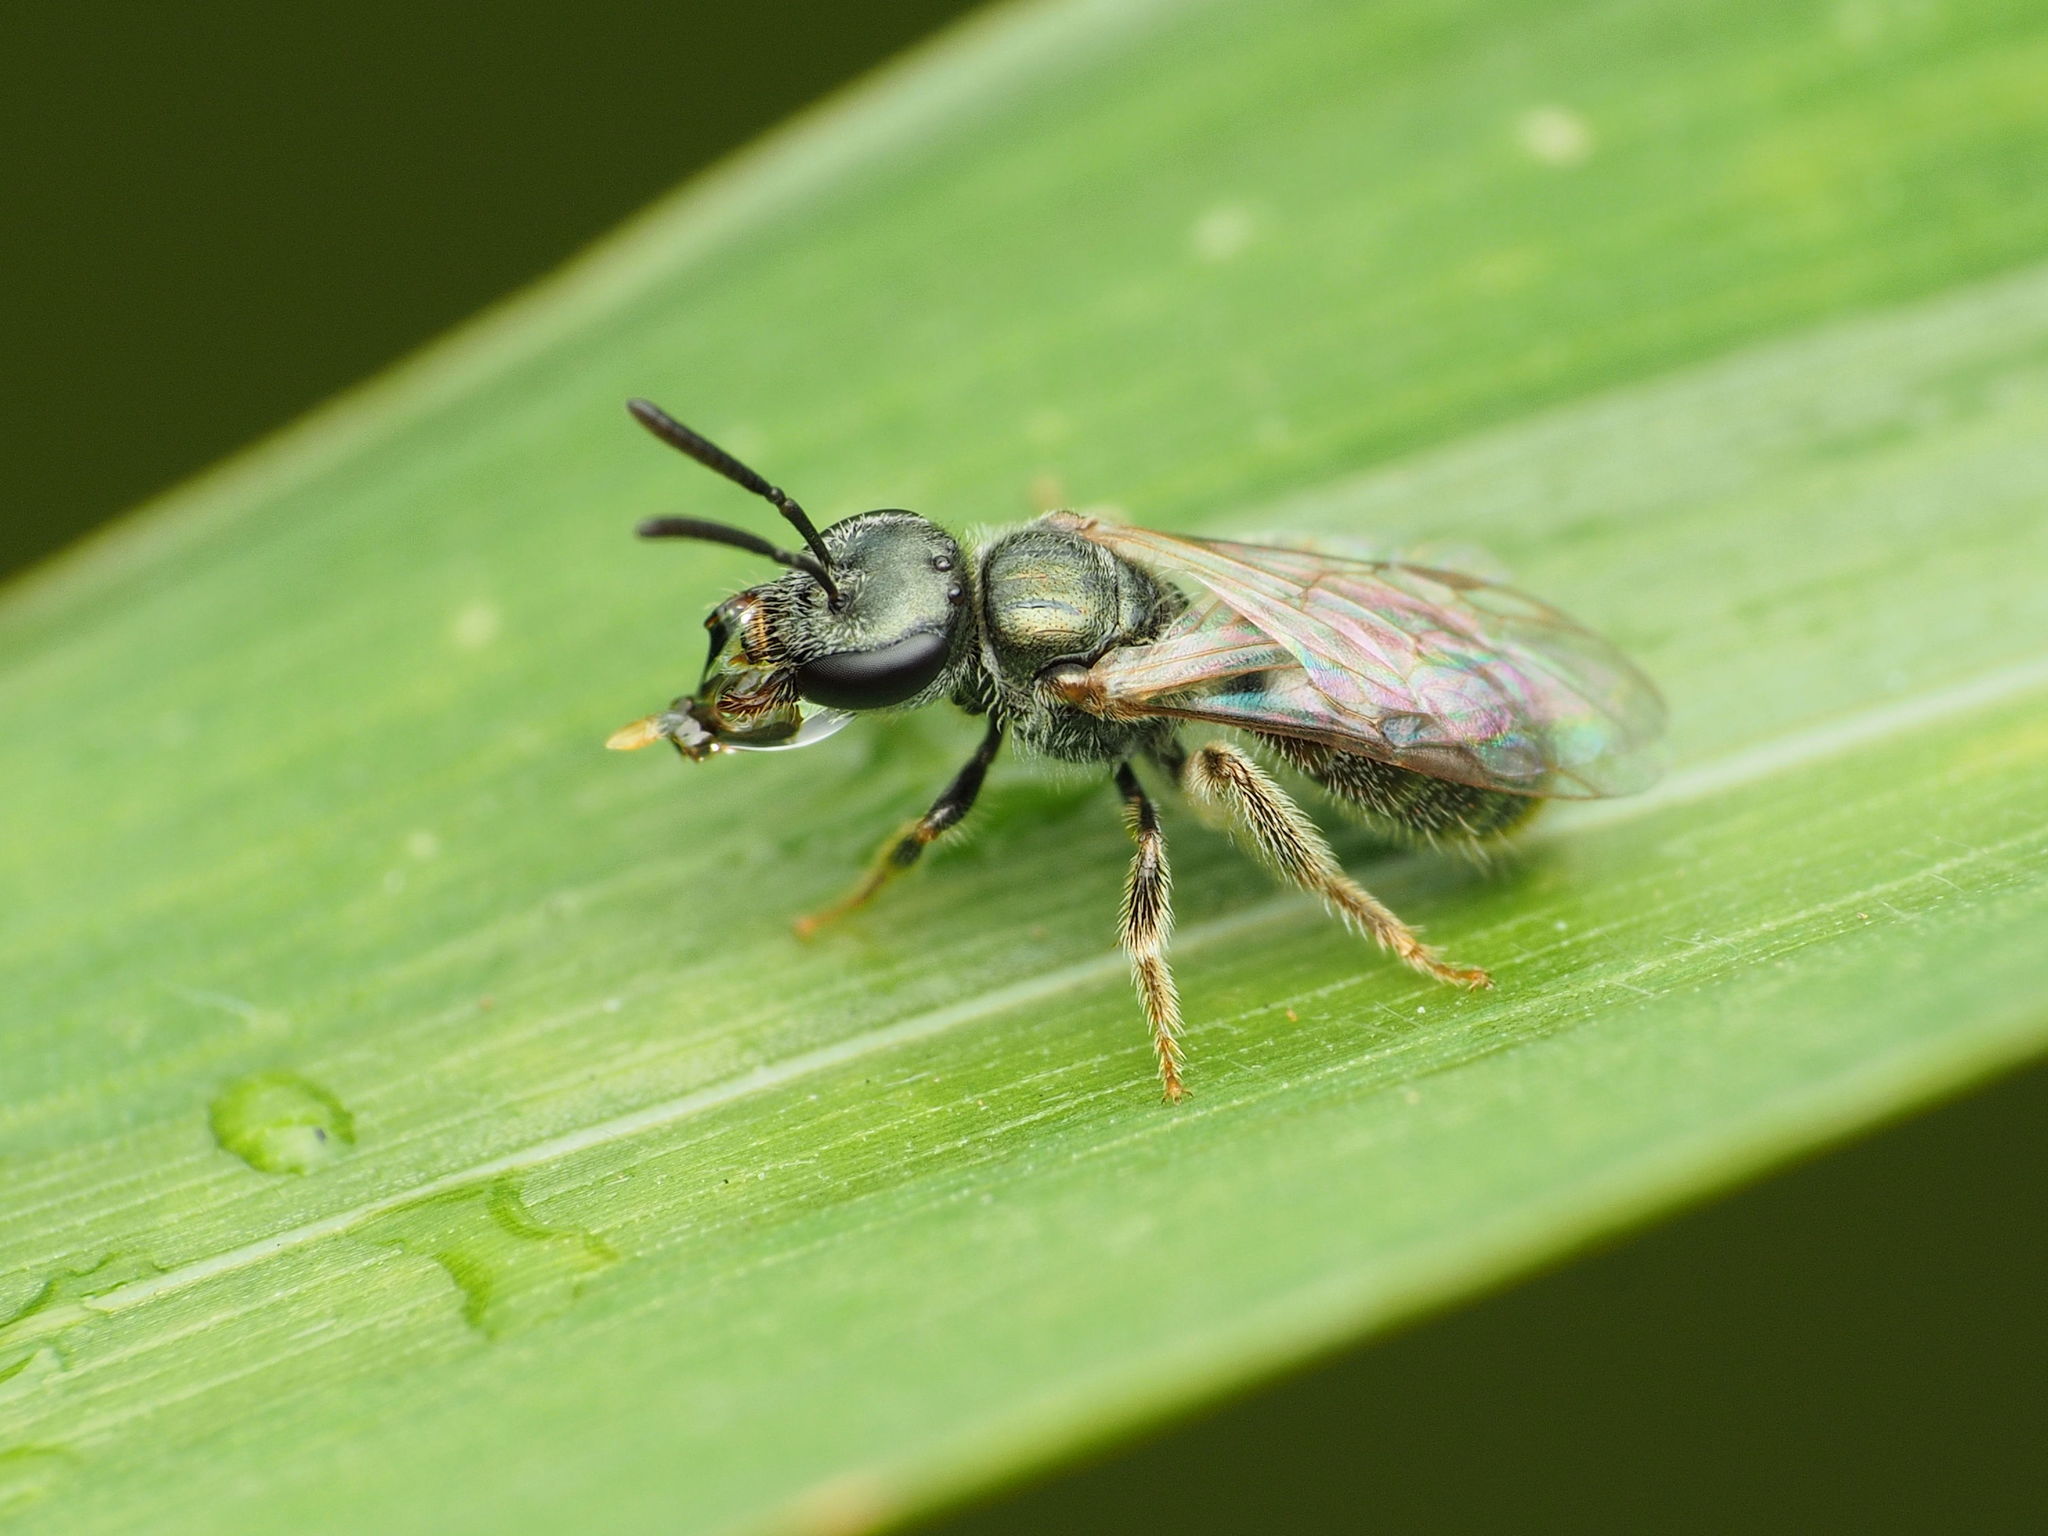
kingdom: Animalia
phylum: Arthropoda
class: Insecta
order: Hymenoptera
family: Halictidae
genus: Dialictus
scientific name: Dialictus
